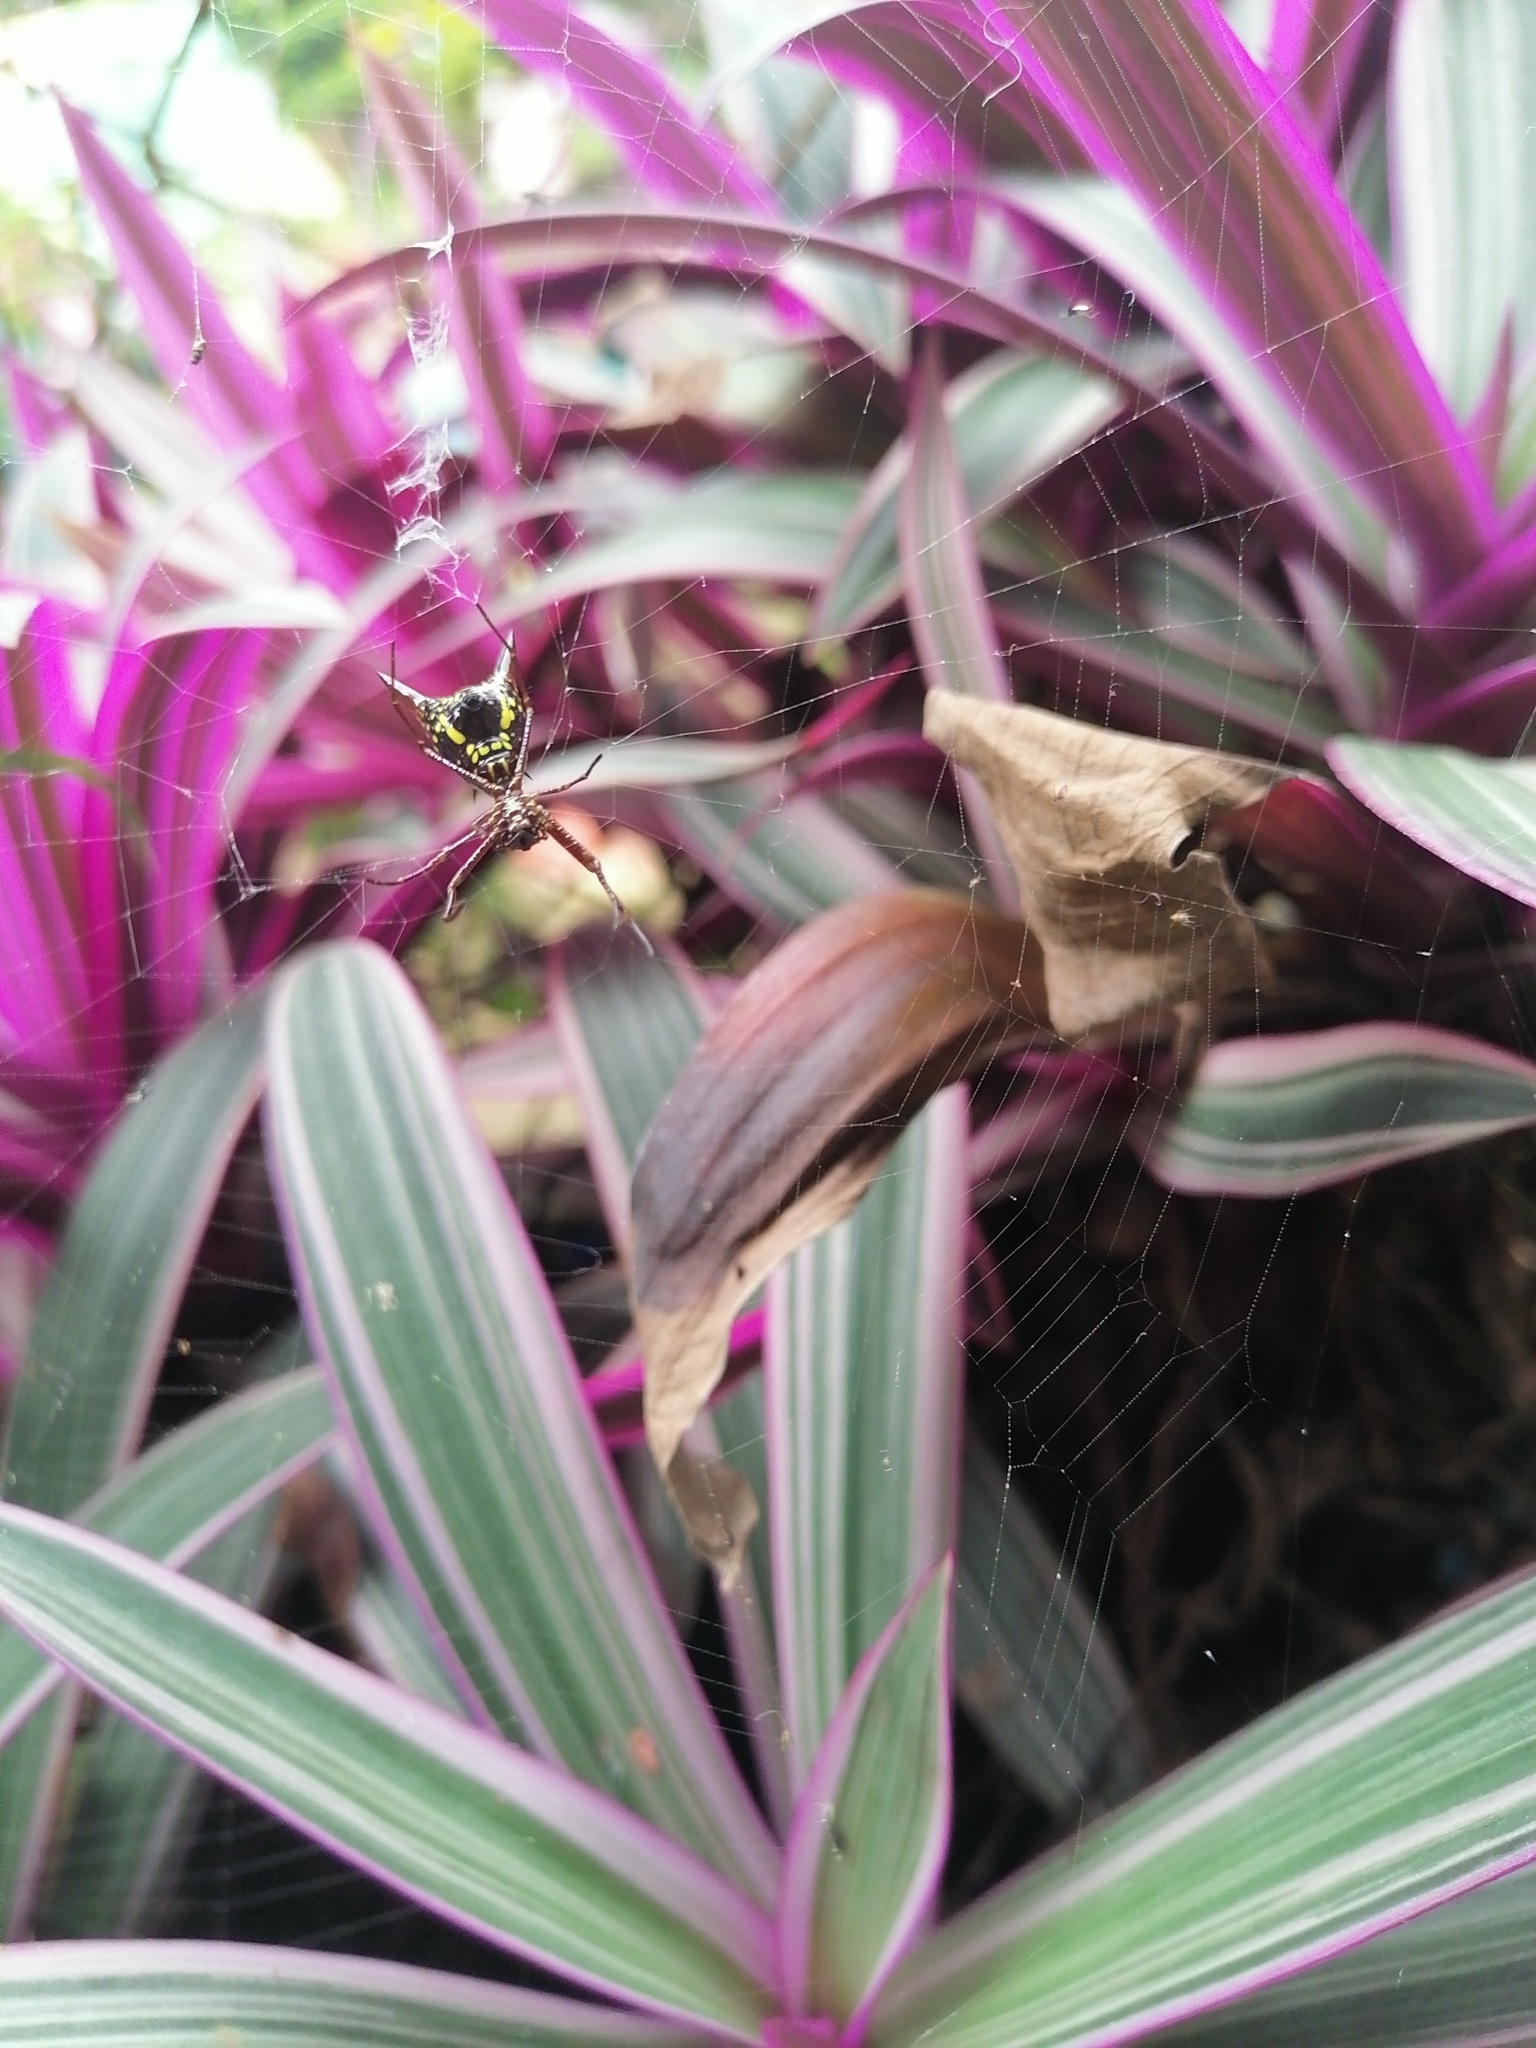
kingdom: Animalia
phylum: Arthropoda
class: Arachnida
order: Araneae
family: Araneidae
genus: Micrathena
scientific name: Micrathena sexspinosa
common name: Orb weavers
